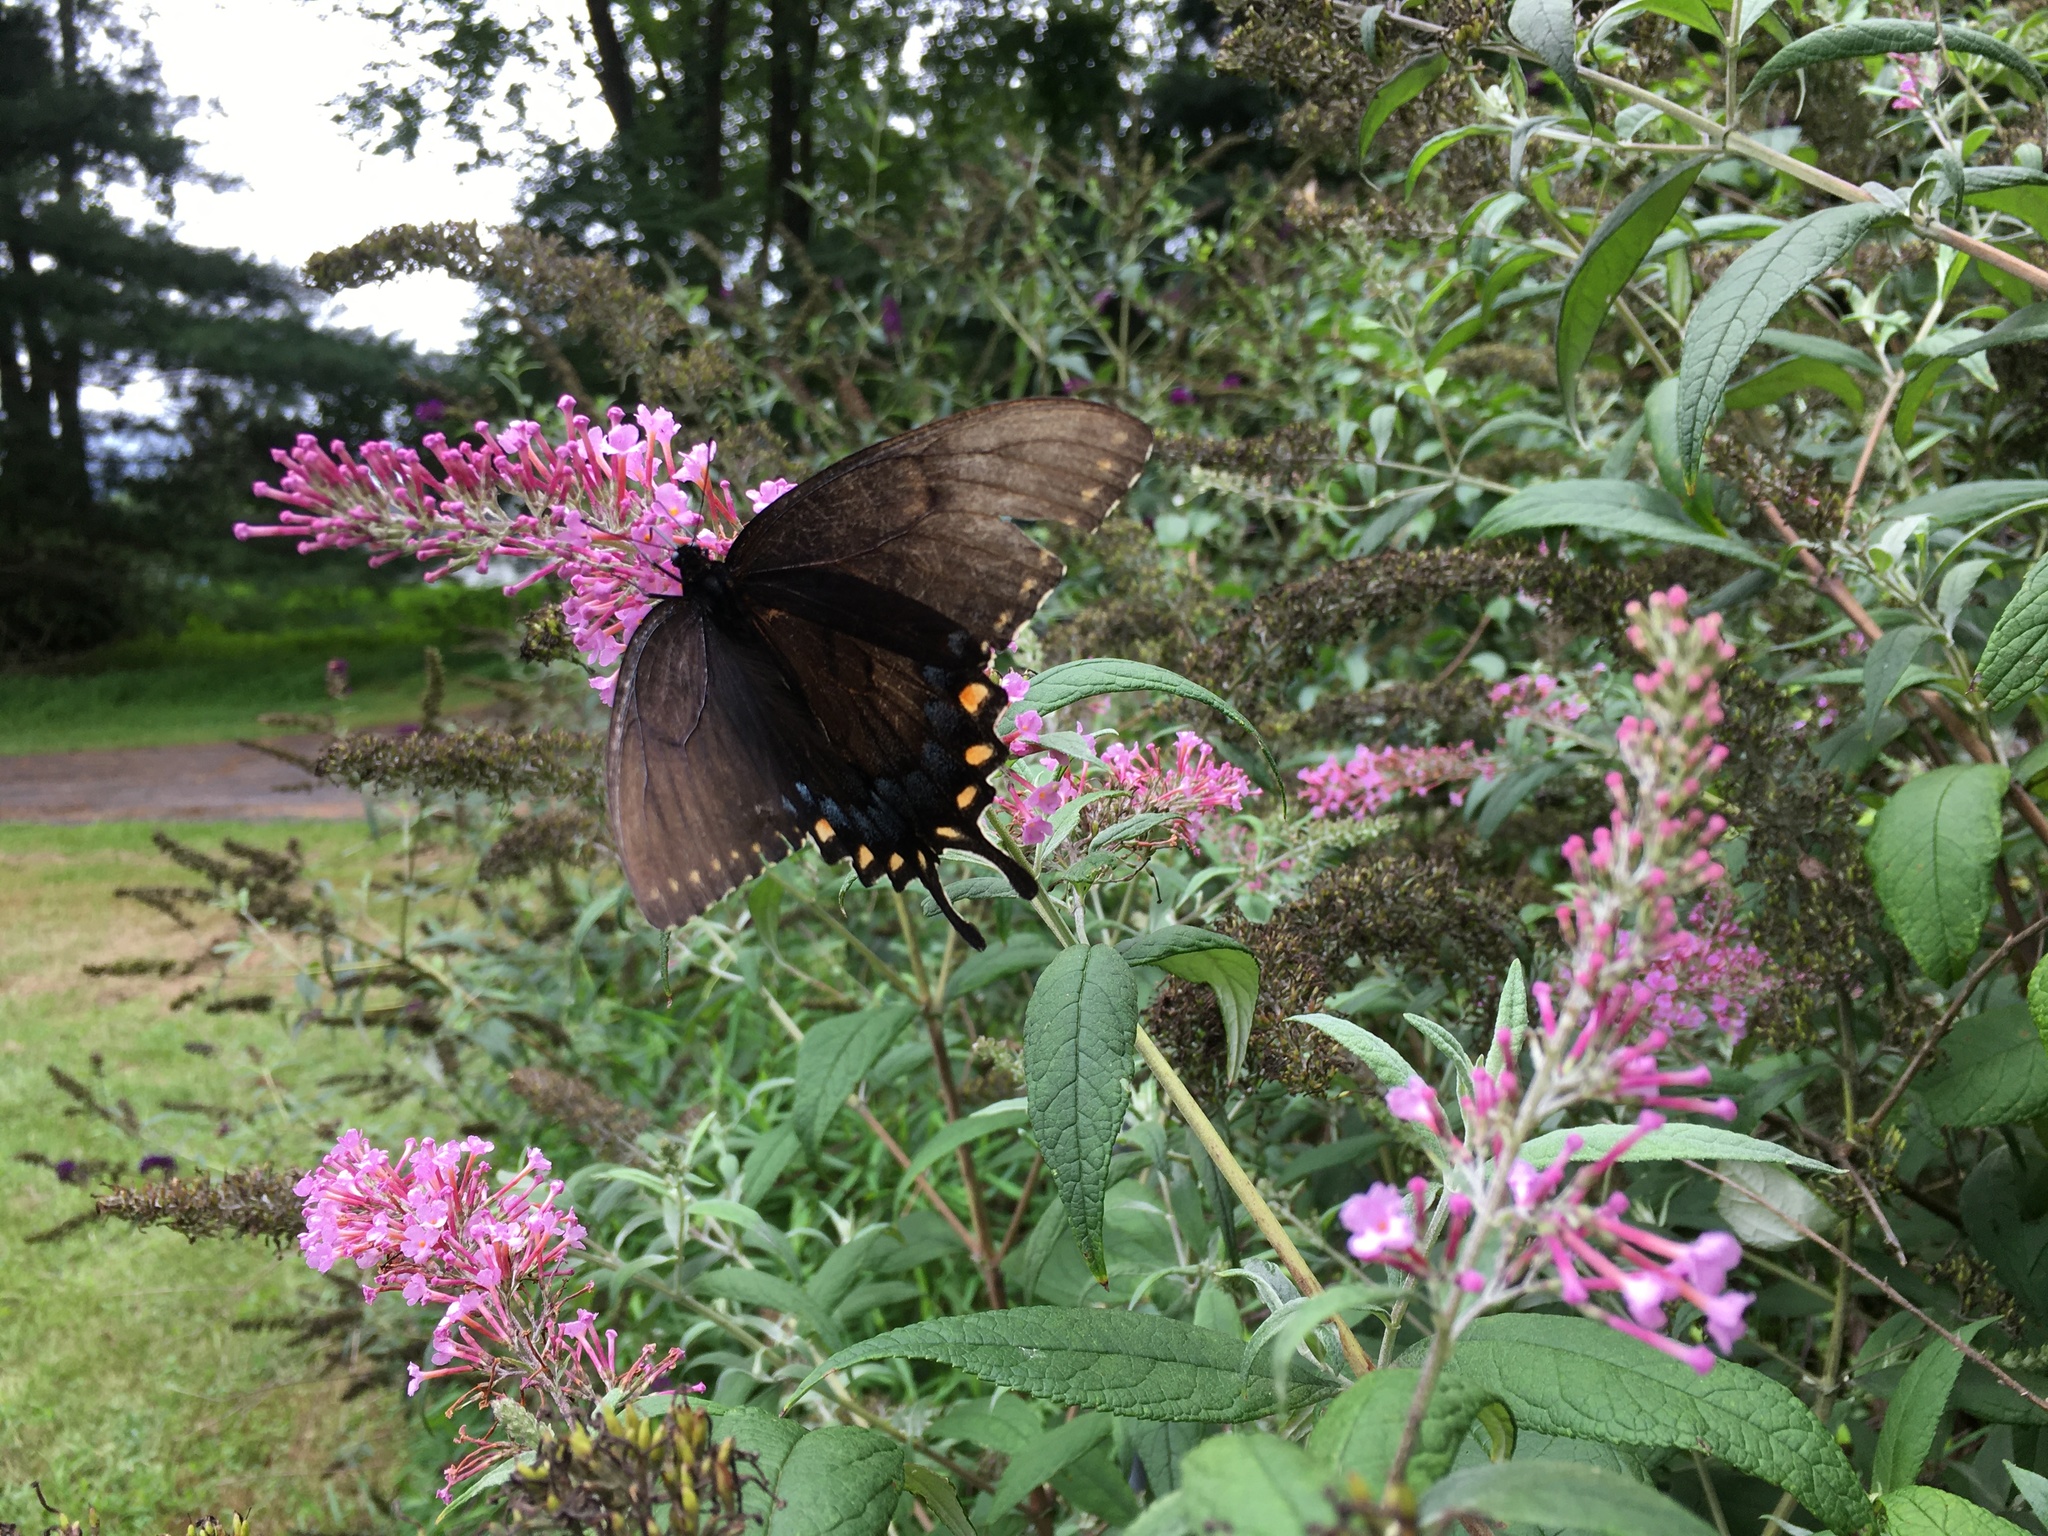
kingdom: Animalia
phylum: Arthropoda
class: Insecta
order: Lepidoptera
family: Papilionidae
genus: Papilio
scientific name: Papilio glaucus
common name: Tiger swallowtail
